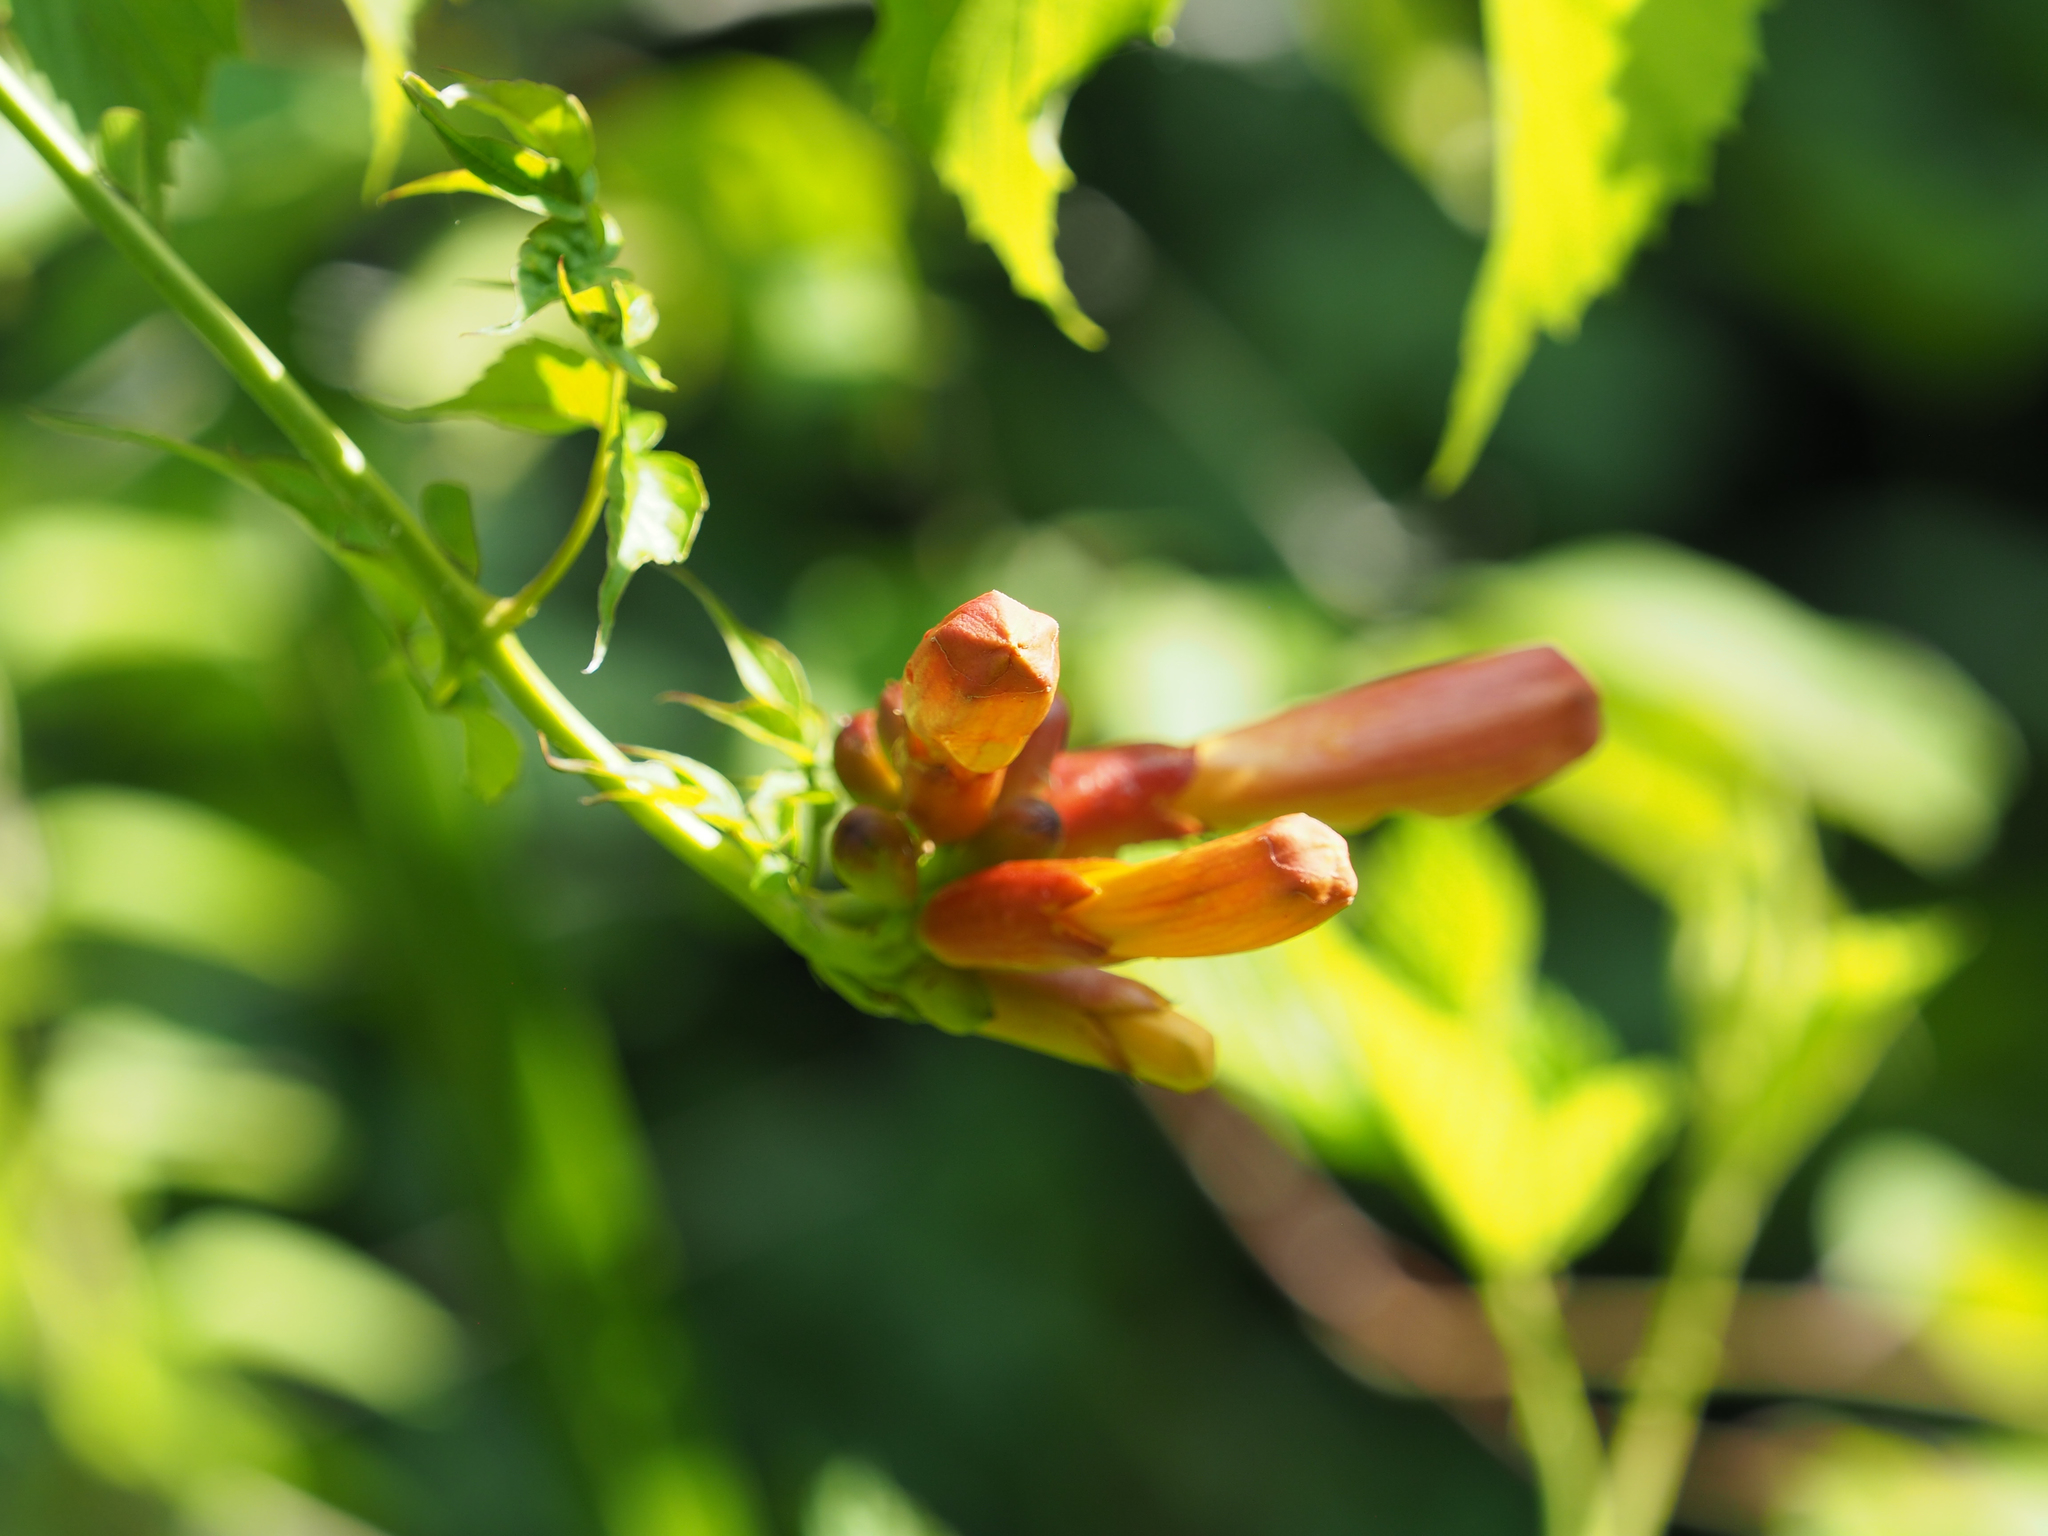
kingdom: Plantae
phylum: Tracheophyta
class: Magnoliopsida
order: Lamiales
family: Bignoniaceae
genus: Campsis
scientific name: Campsis radicans
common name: Trumpet-creeper
